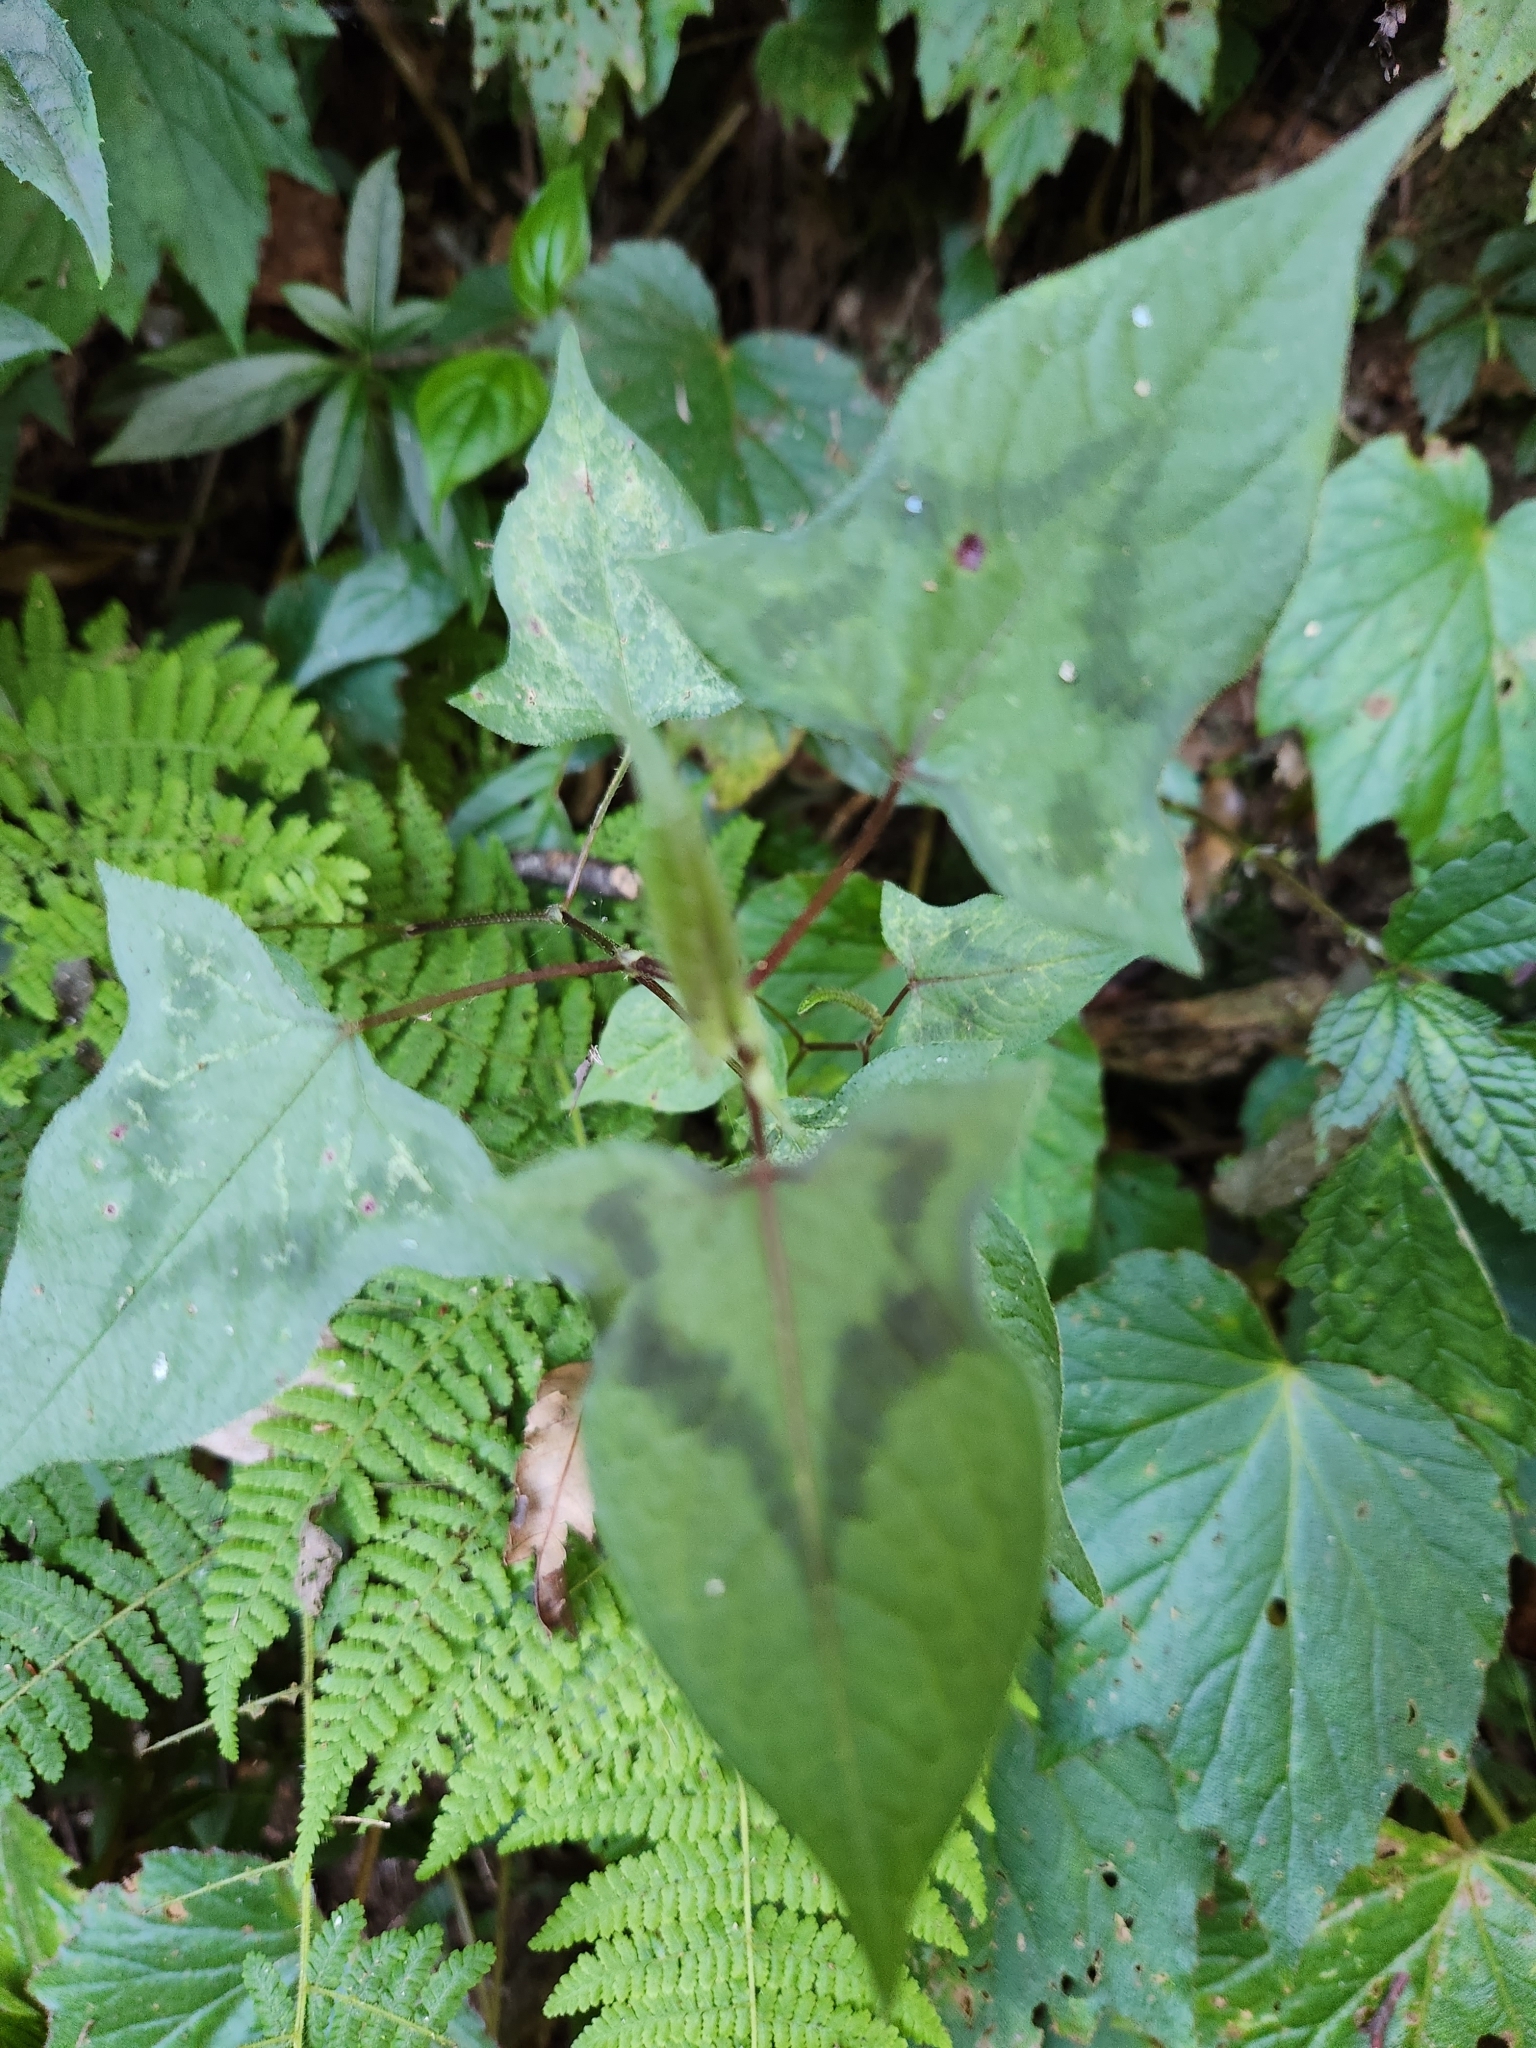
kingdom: Plantae
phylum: Tracheophyta
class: Magnoliopsida
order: Caryophyllales
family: Polygonaceae
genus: Persicaria
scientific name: Persicaria biconvexa
